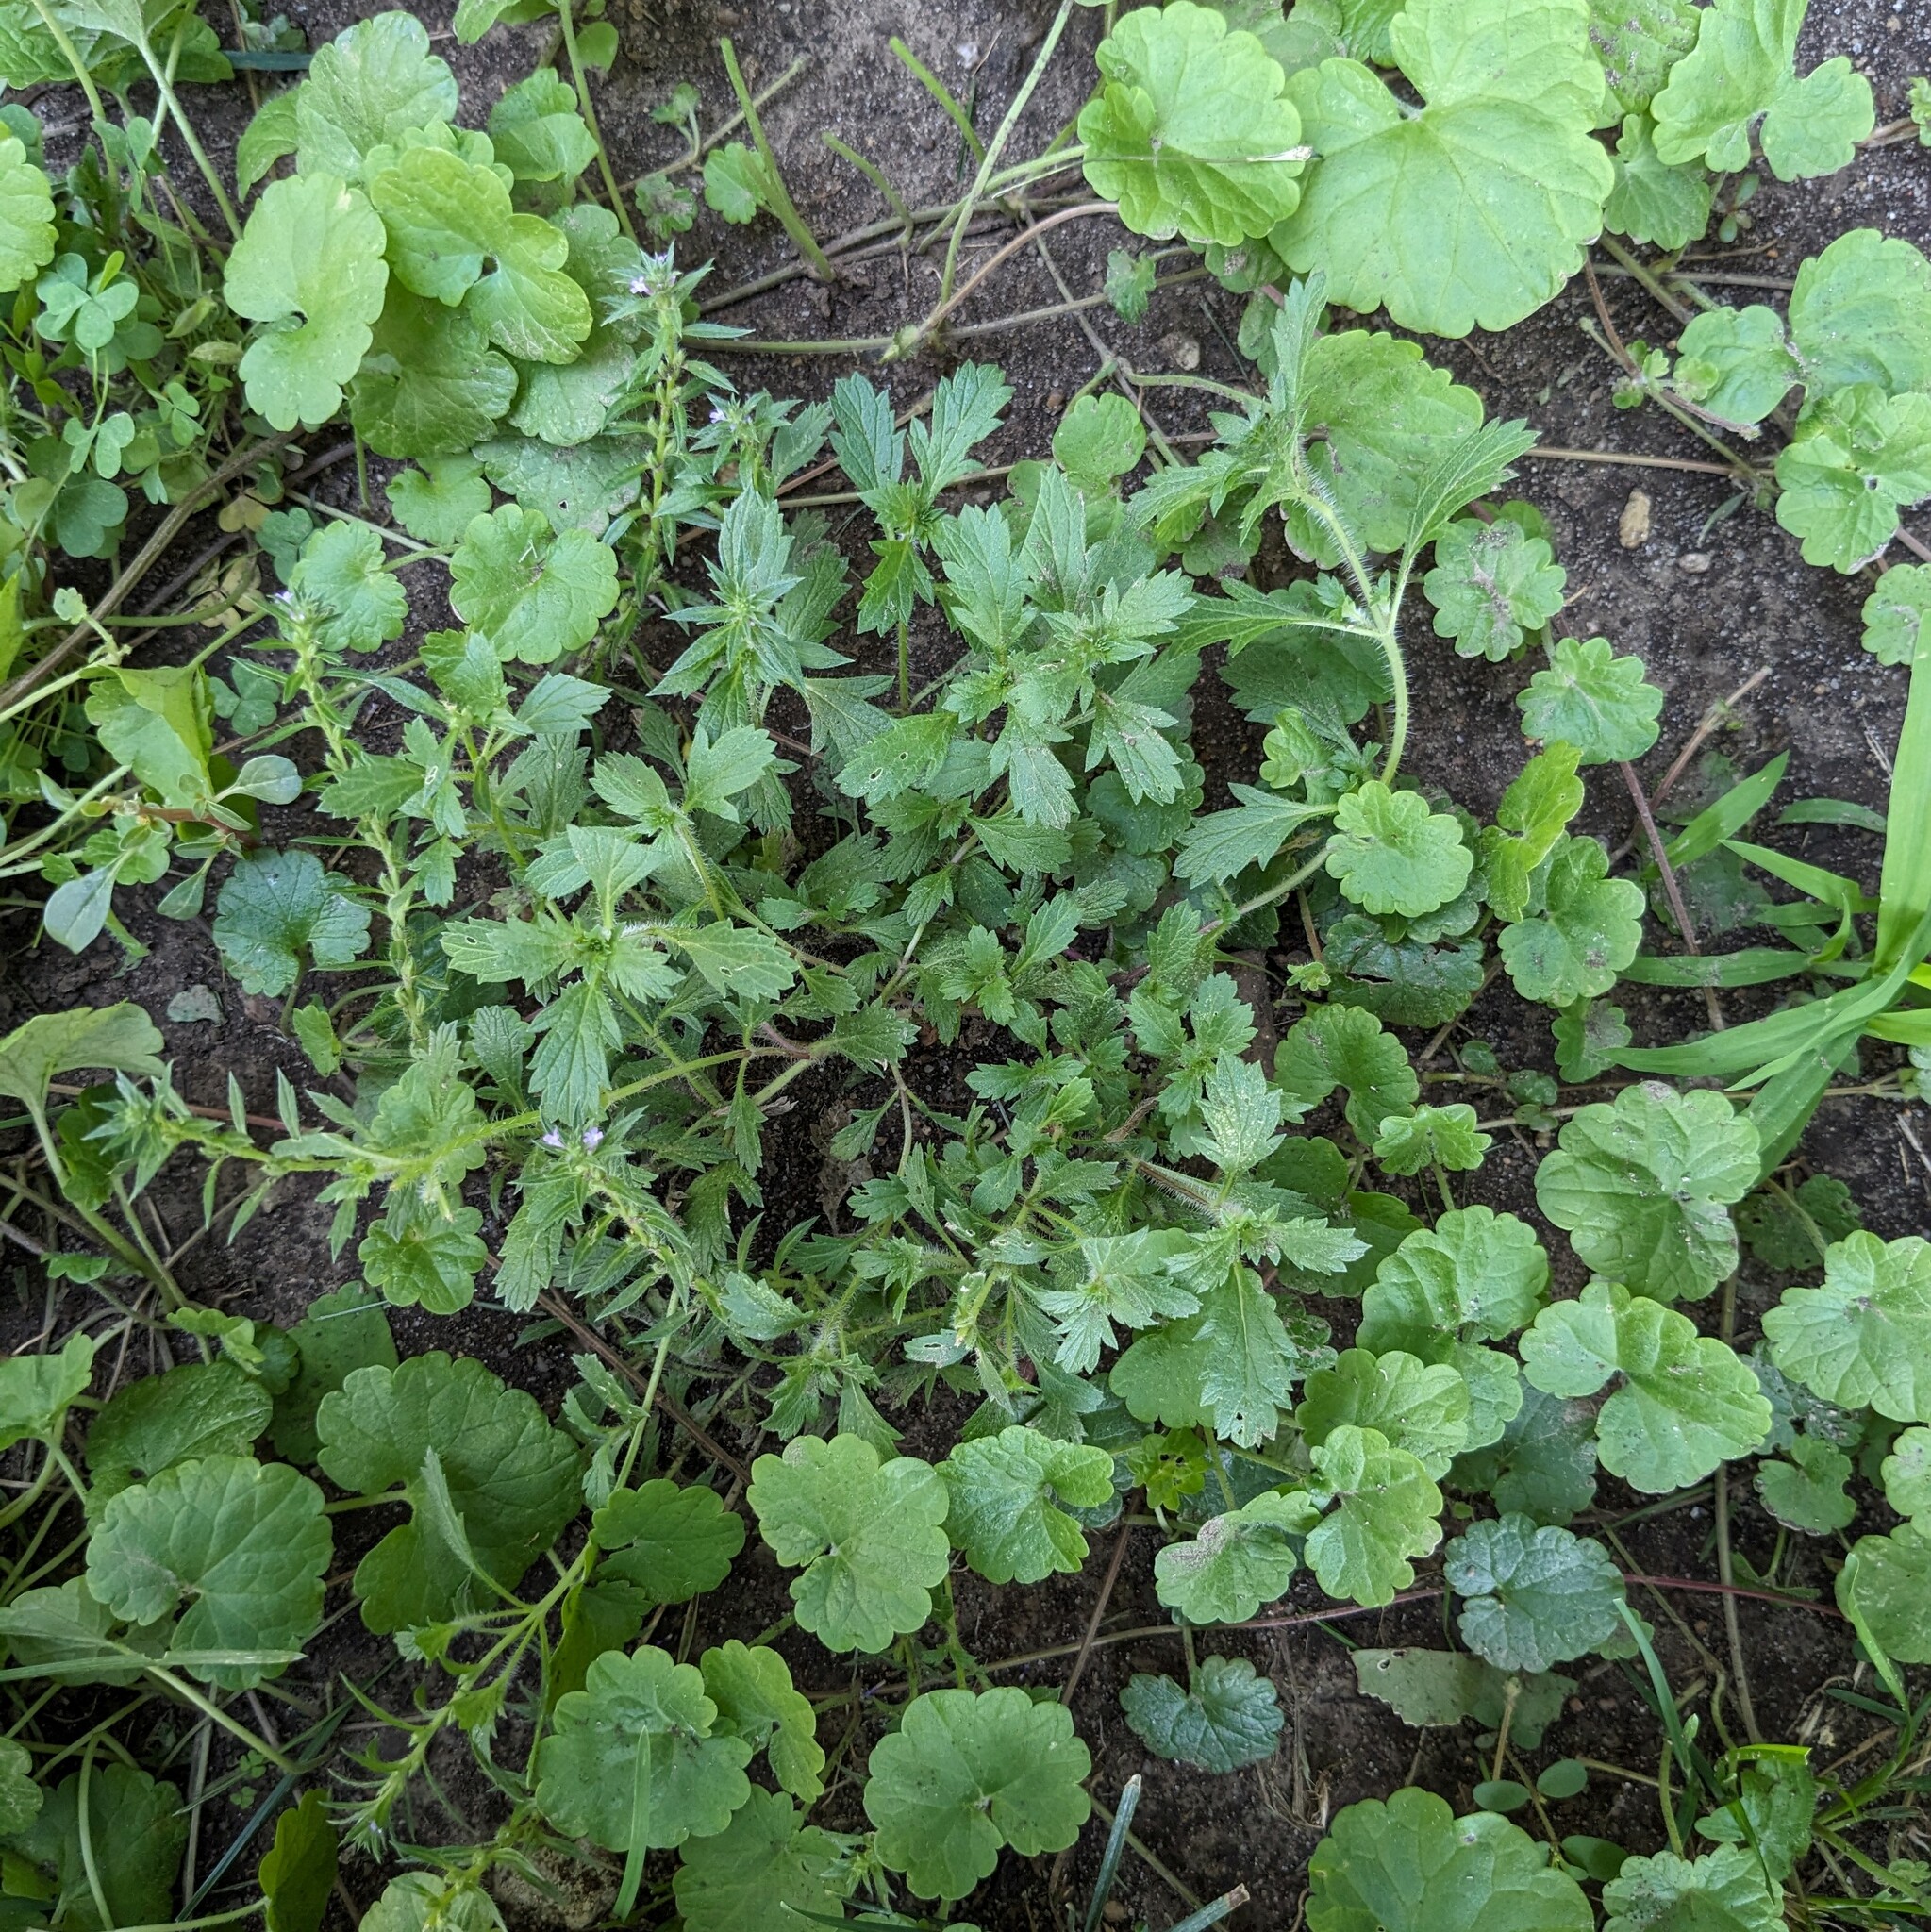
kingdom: Plantae
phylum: Tracheophyta
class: Magnoliopsida
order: Lamiales
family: Verbenaceae
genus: Verbena
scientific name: Verbena bracteata
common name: Bracted vervain
